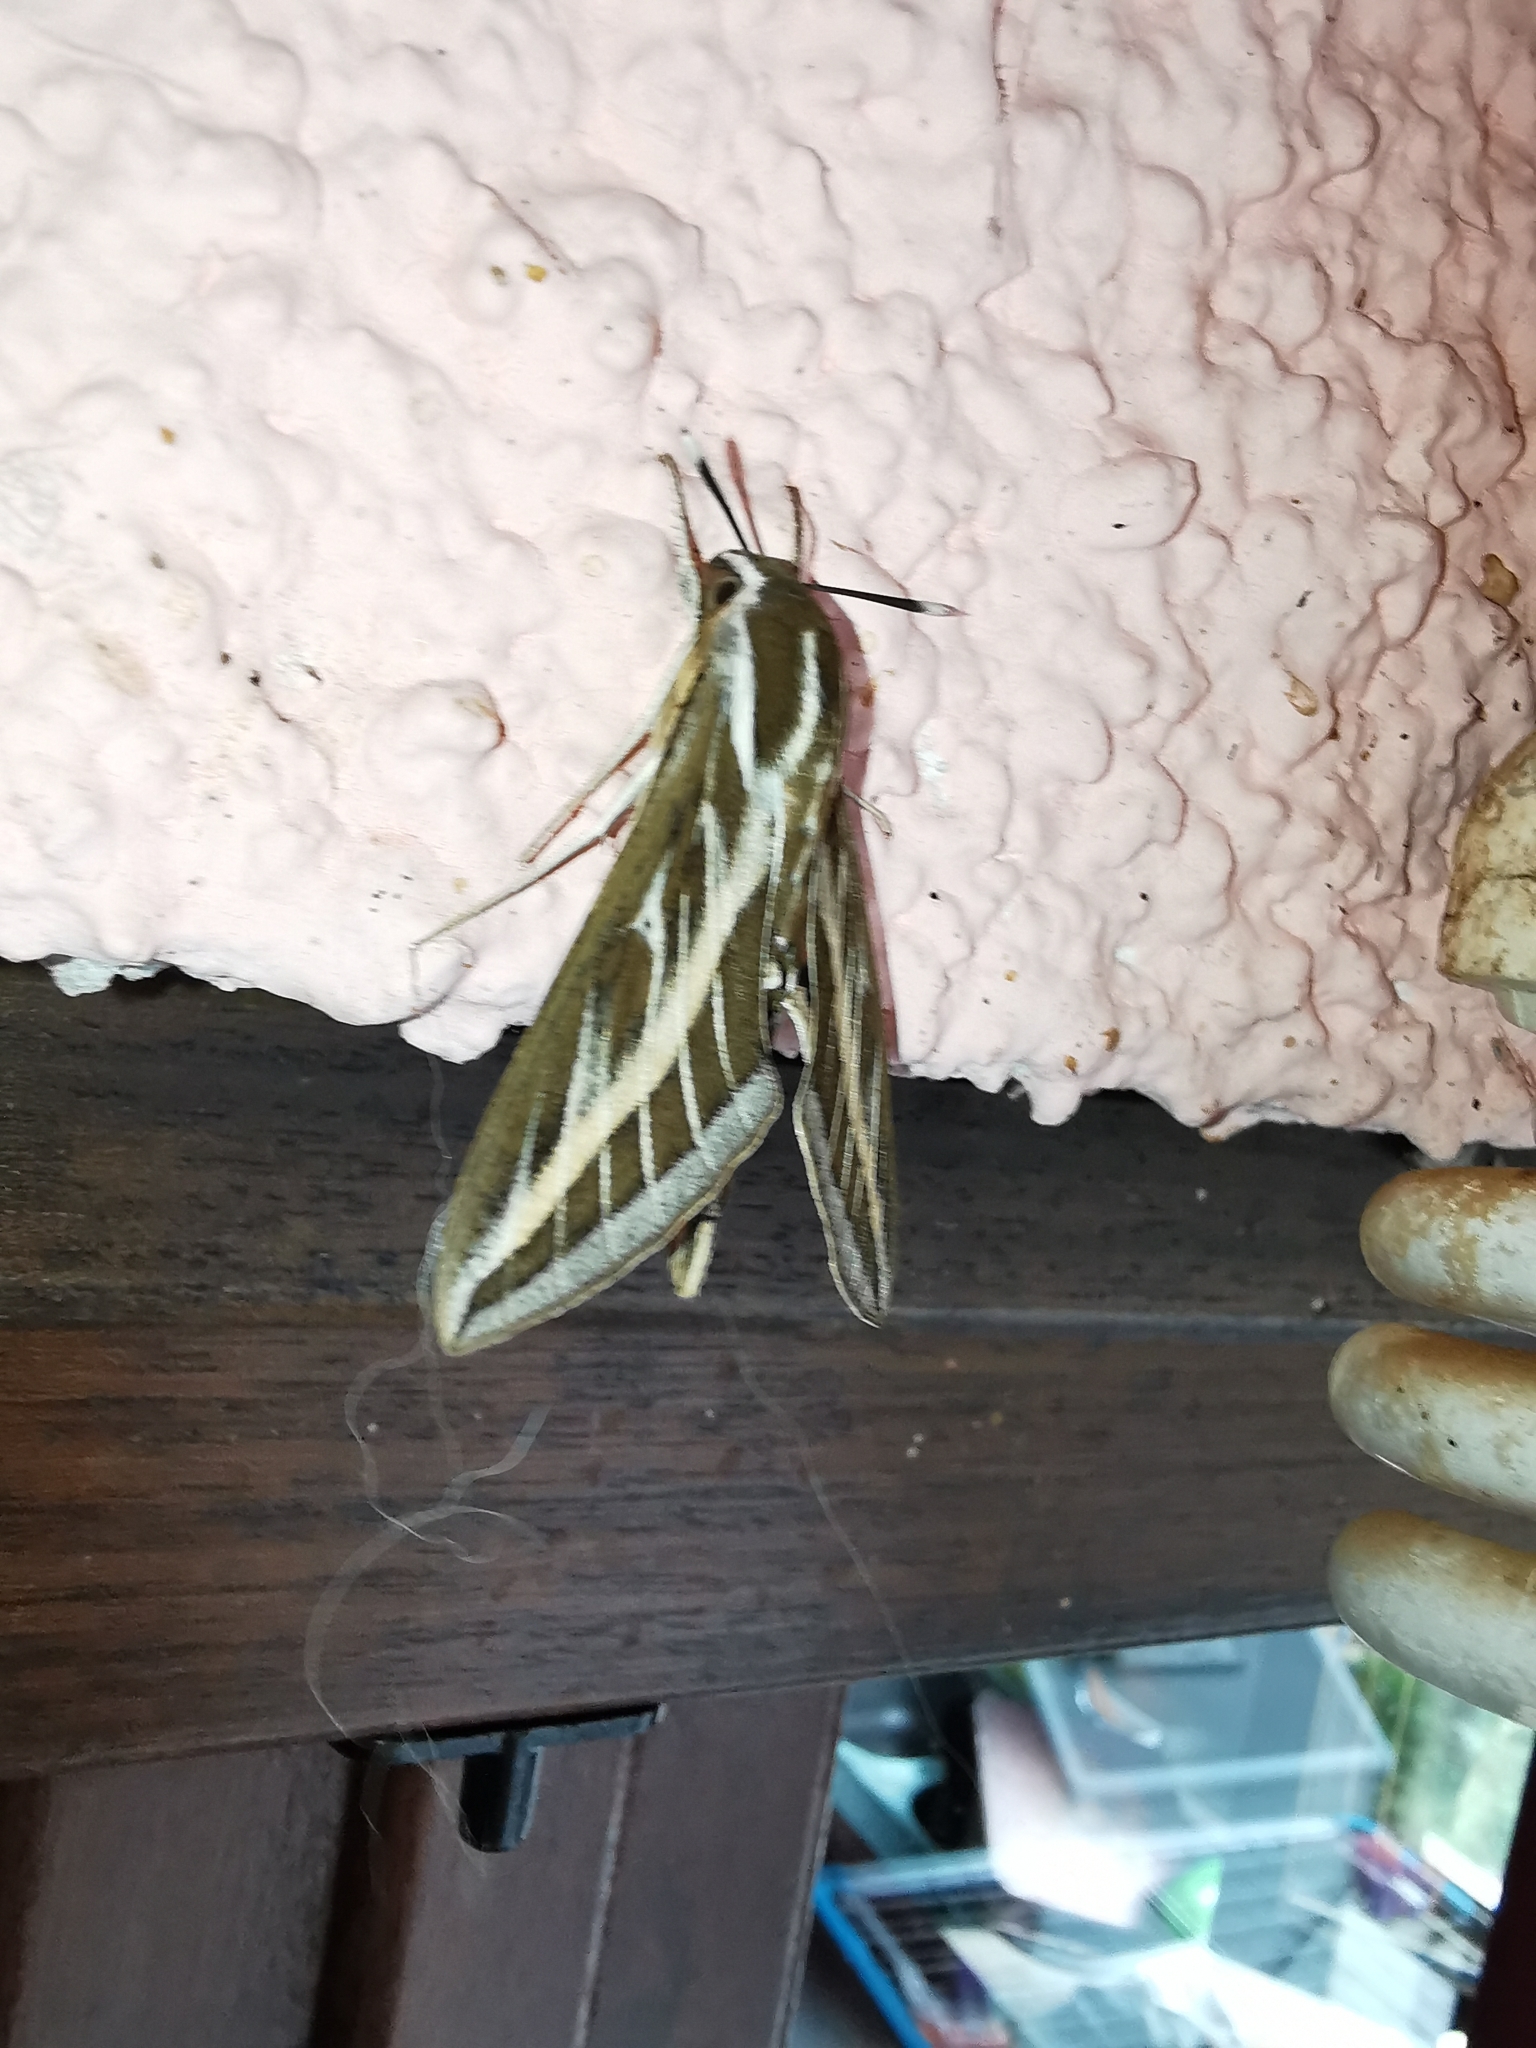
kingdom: Animalia
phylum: Arthropoda
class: Insecta
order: Lepidoptera
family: Sphingidae
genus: Hyles
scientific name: Hyles livornica
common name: Striped hawk-moth
